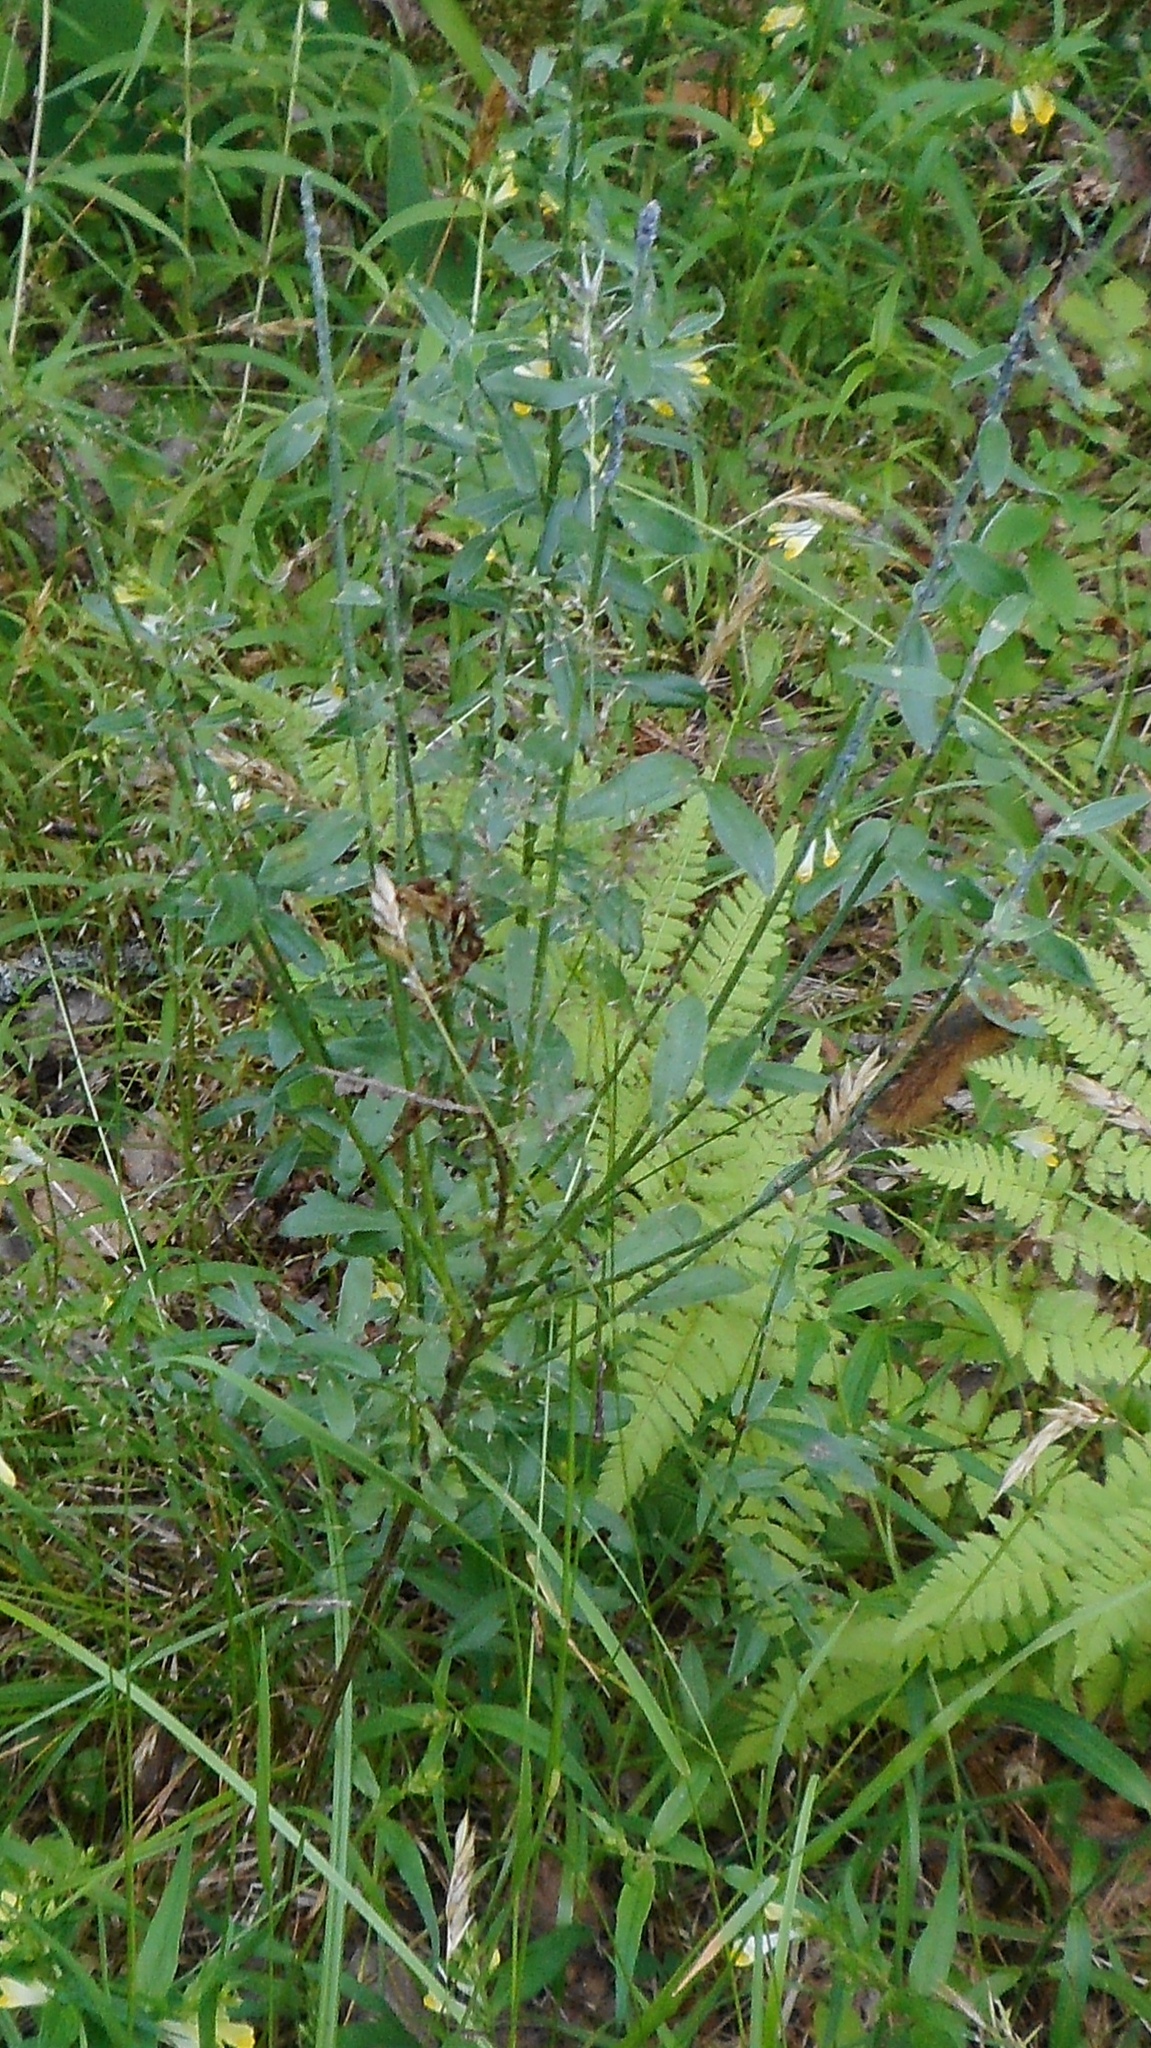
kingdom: Plantae
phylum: Tracheophyta
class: Magnoliopsida
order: Fabales
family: Fabaceae
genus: Genista
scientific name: Genista tinctoria
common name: Dyer's greenweed
